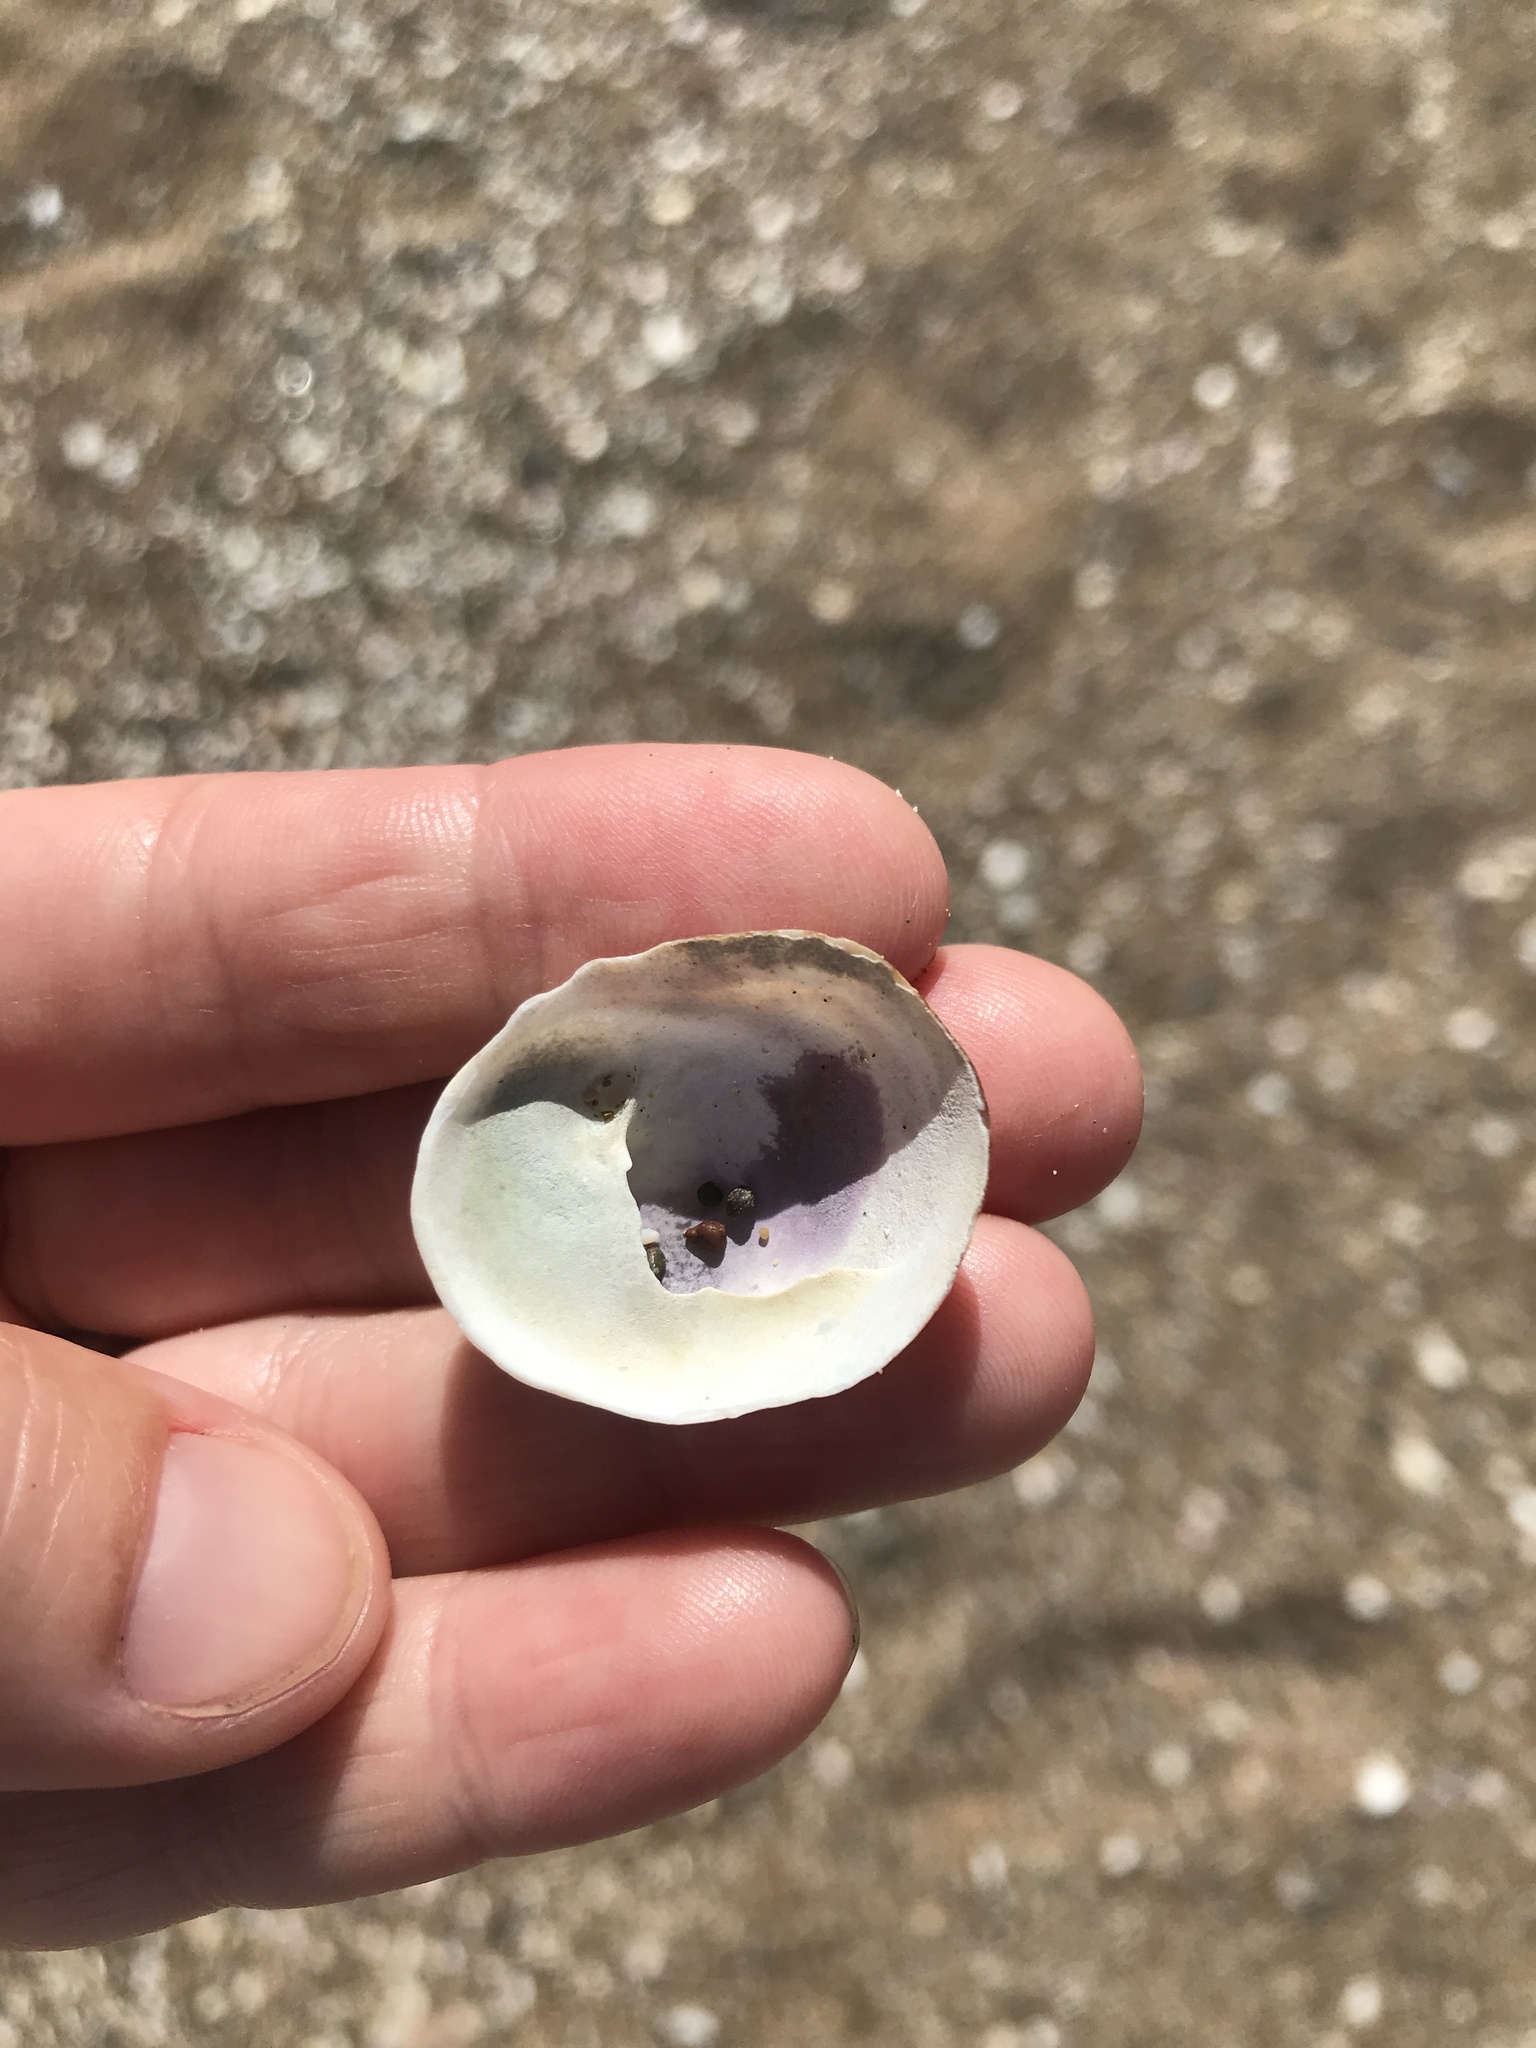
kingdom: Animalia
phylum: Mollusca
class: Gastropoda
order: Littorinimorpha
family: Calyptraeidae
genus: Sigapatella
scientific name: Sigapatella novaezelandiae
